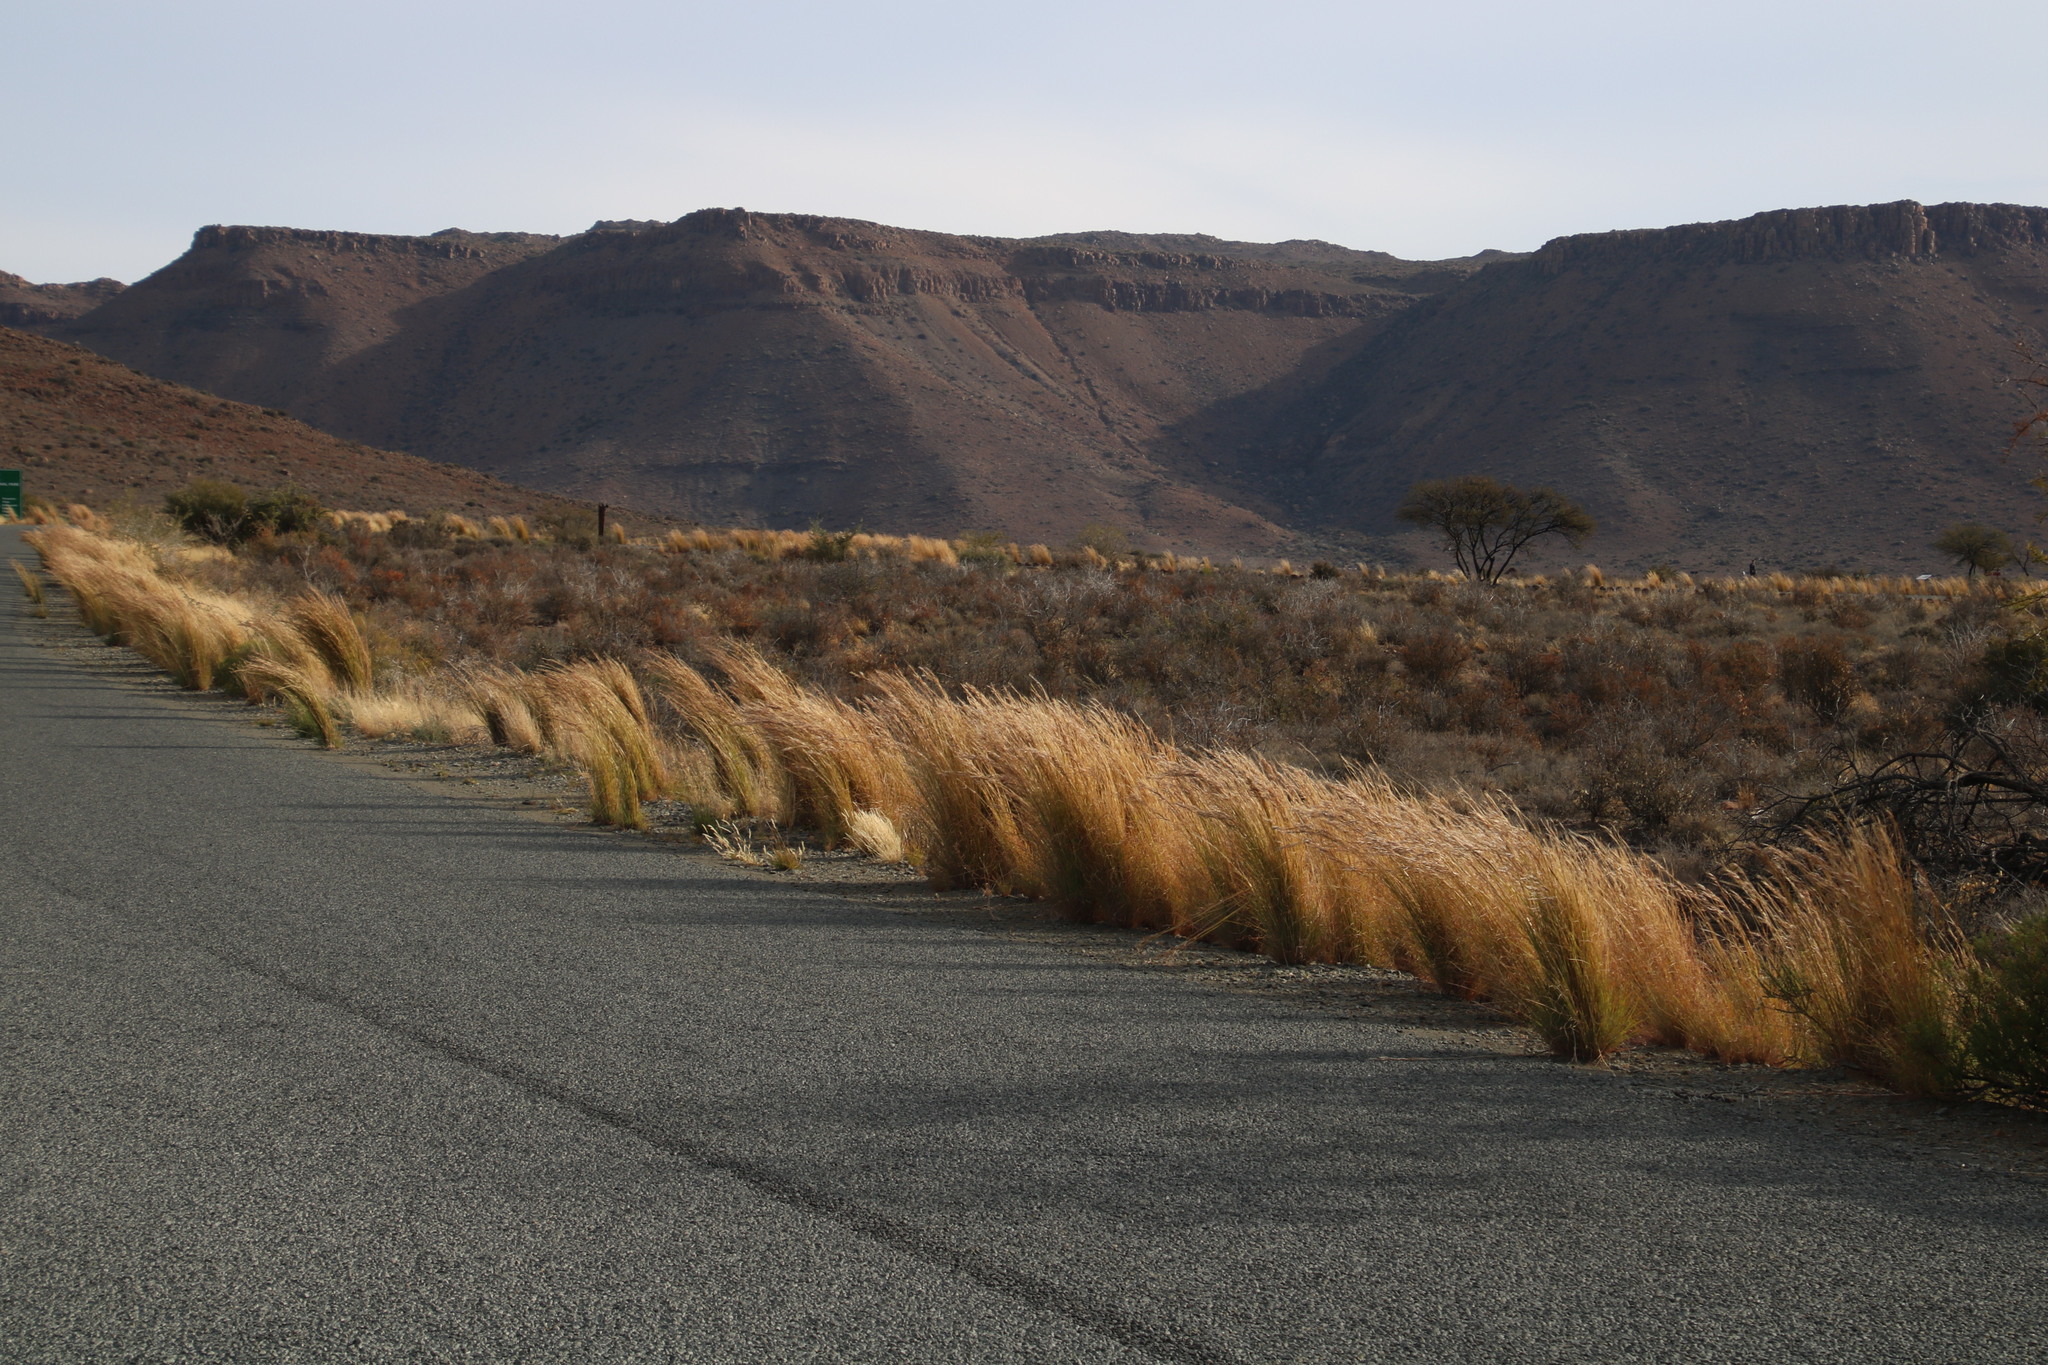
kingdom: Plantae
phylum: Tracheophyta
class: Liliopsida
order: Poales
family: Poaceae
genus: Hyparrhenia
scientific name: Hyparrhenia hirta
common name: Thatching grass
